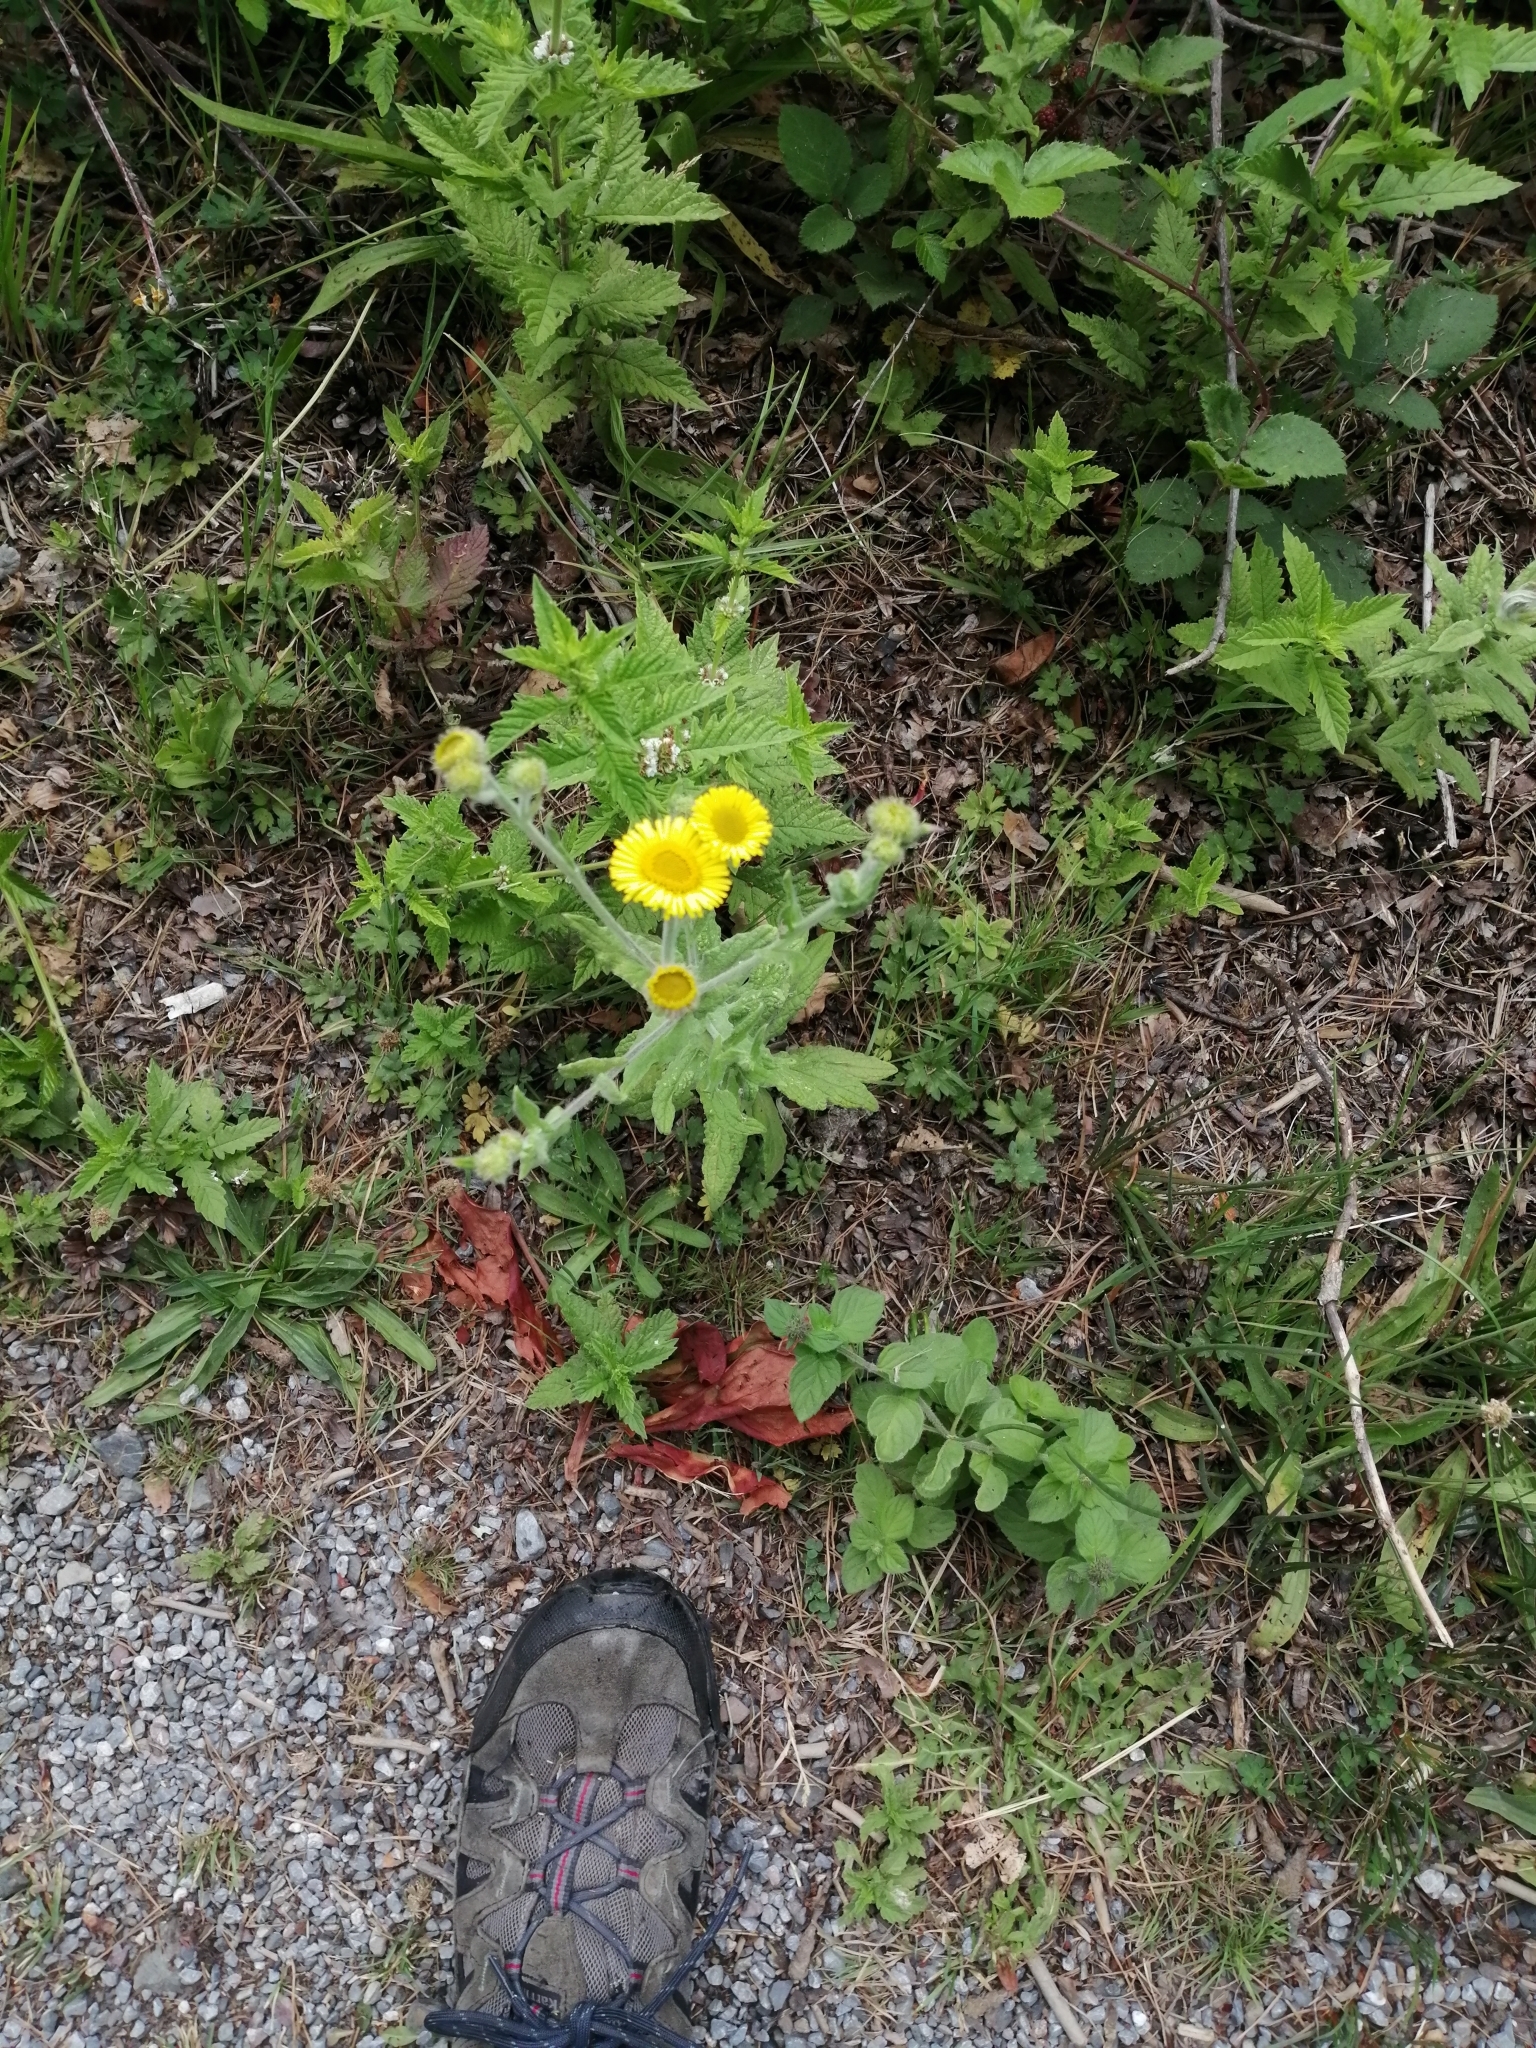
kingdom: Plantae
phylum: Tracheophyta
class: Magnoliopsida
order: Asterales
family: Asteraceae
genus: Pulicaria
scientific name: Pulicaria dysenterica
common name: Common fleabane
